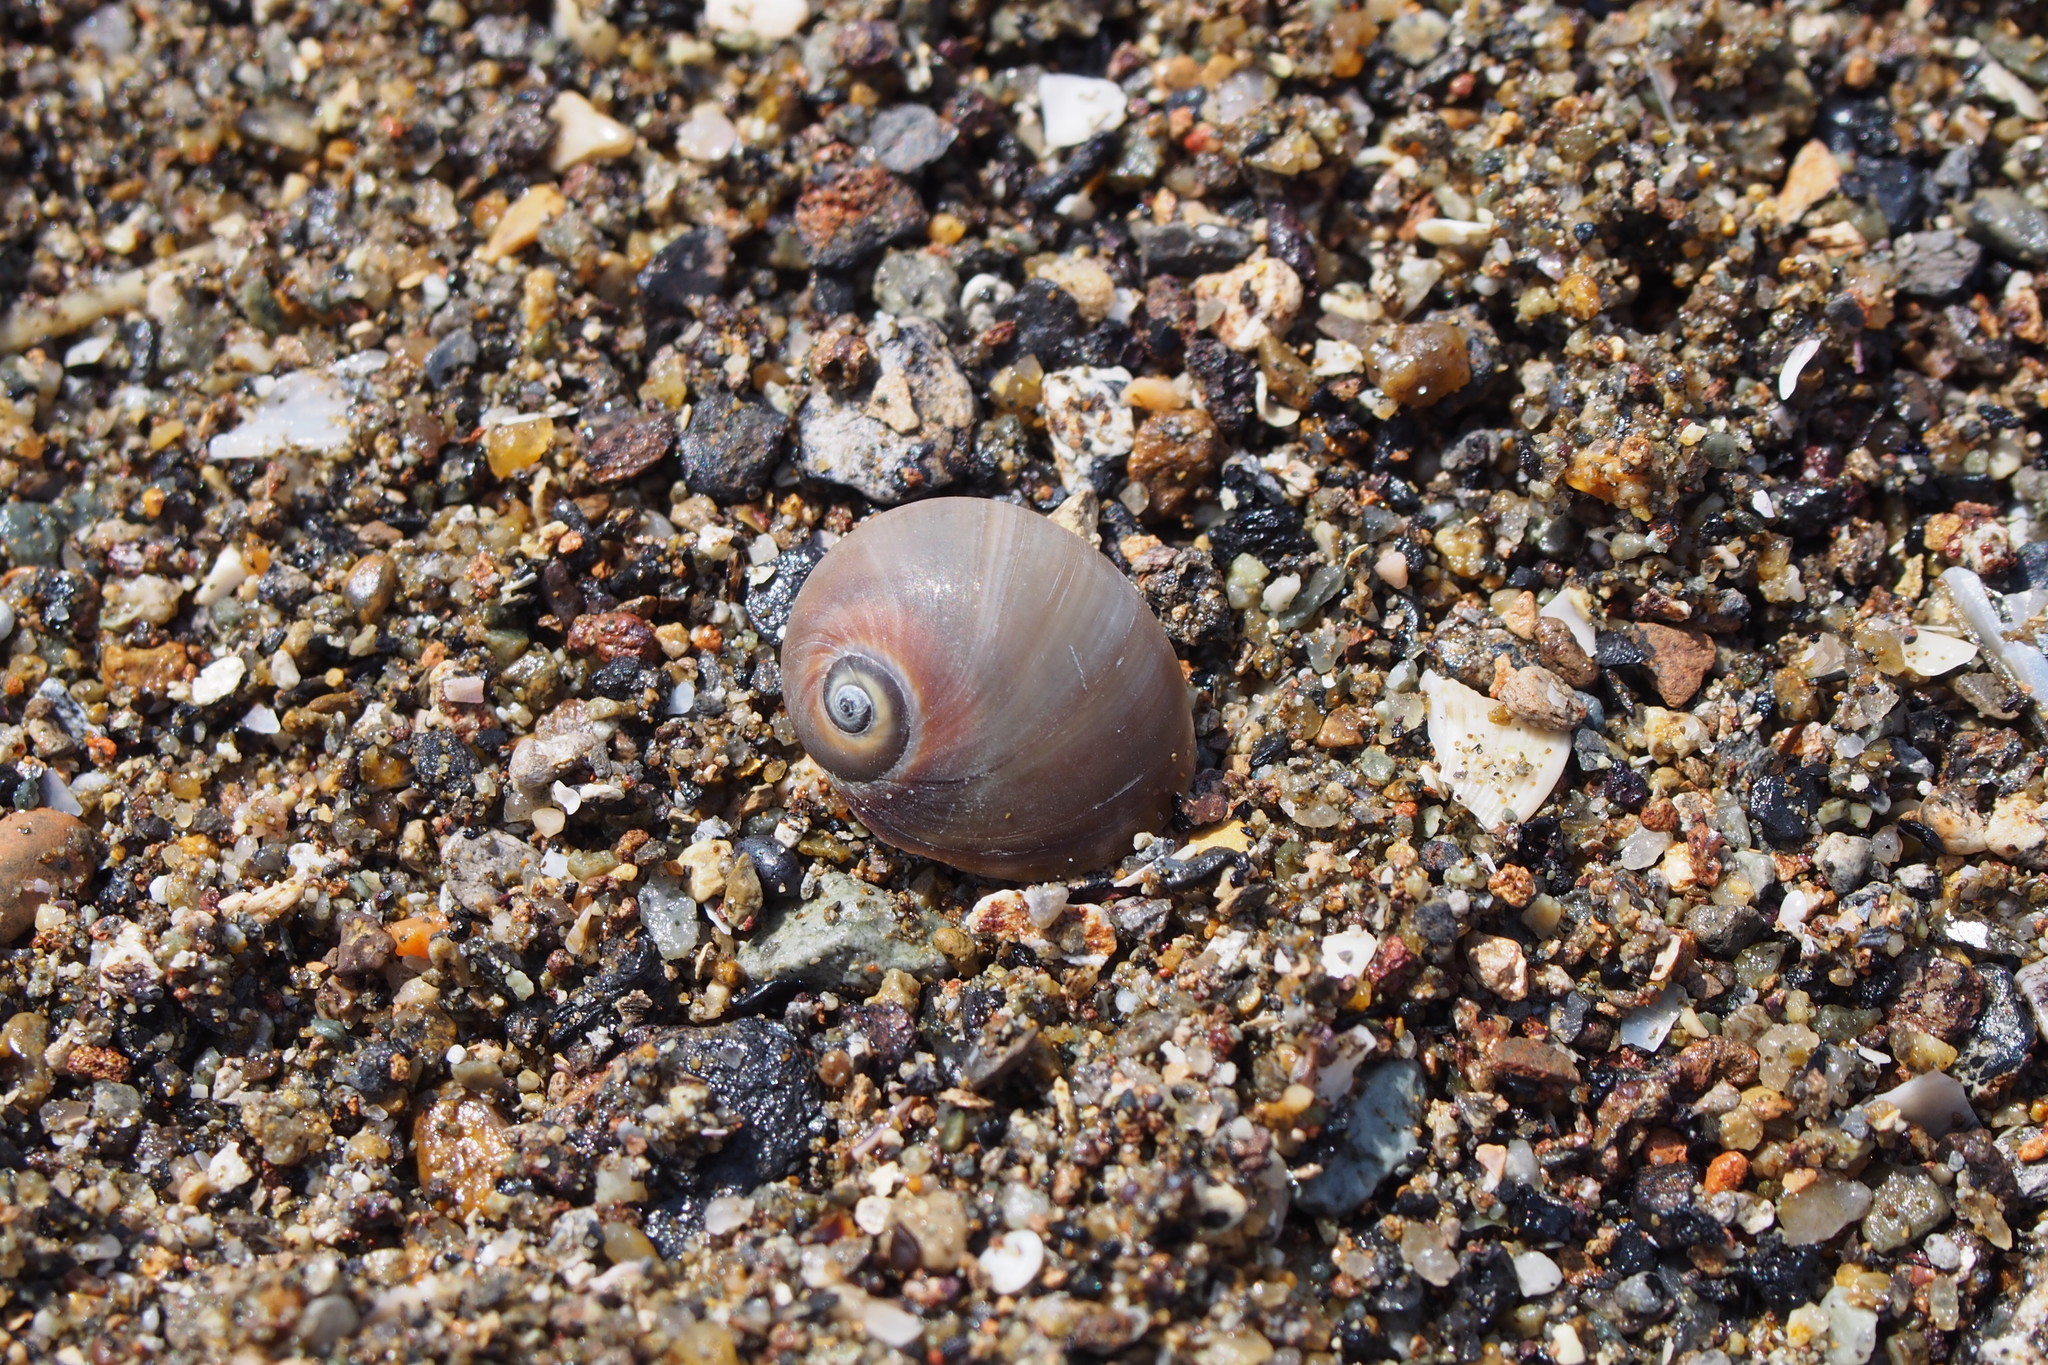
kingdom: Animalia
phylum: Mollusca
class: Gastropoda
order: Littorinimorpha
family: Naticidae
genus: Neverita
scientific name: Neverita didyma
